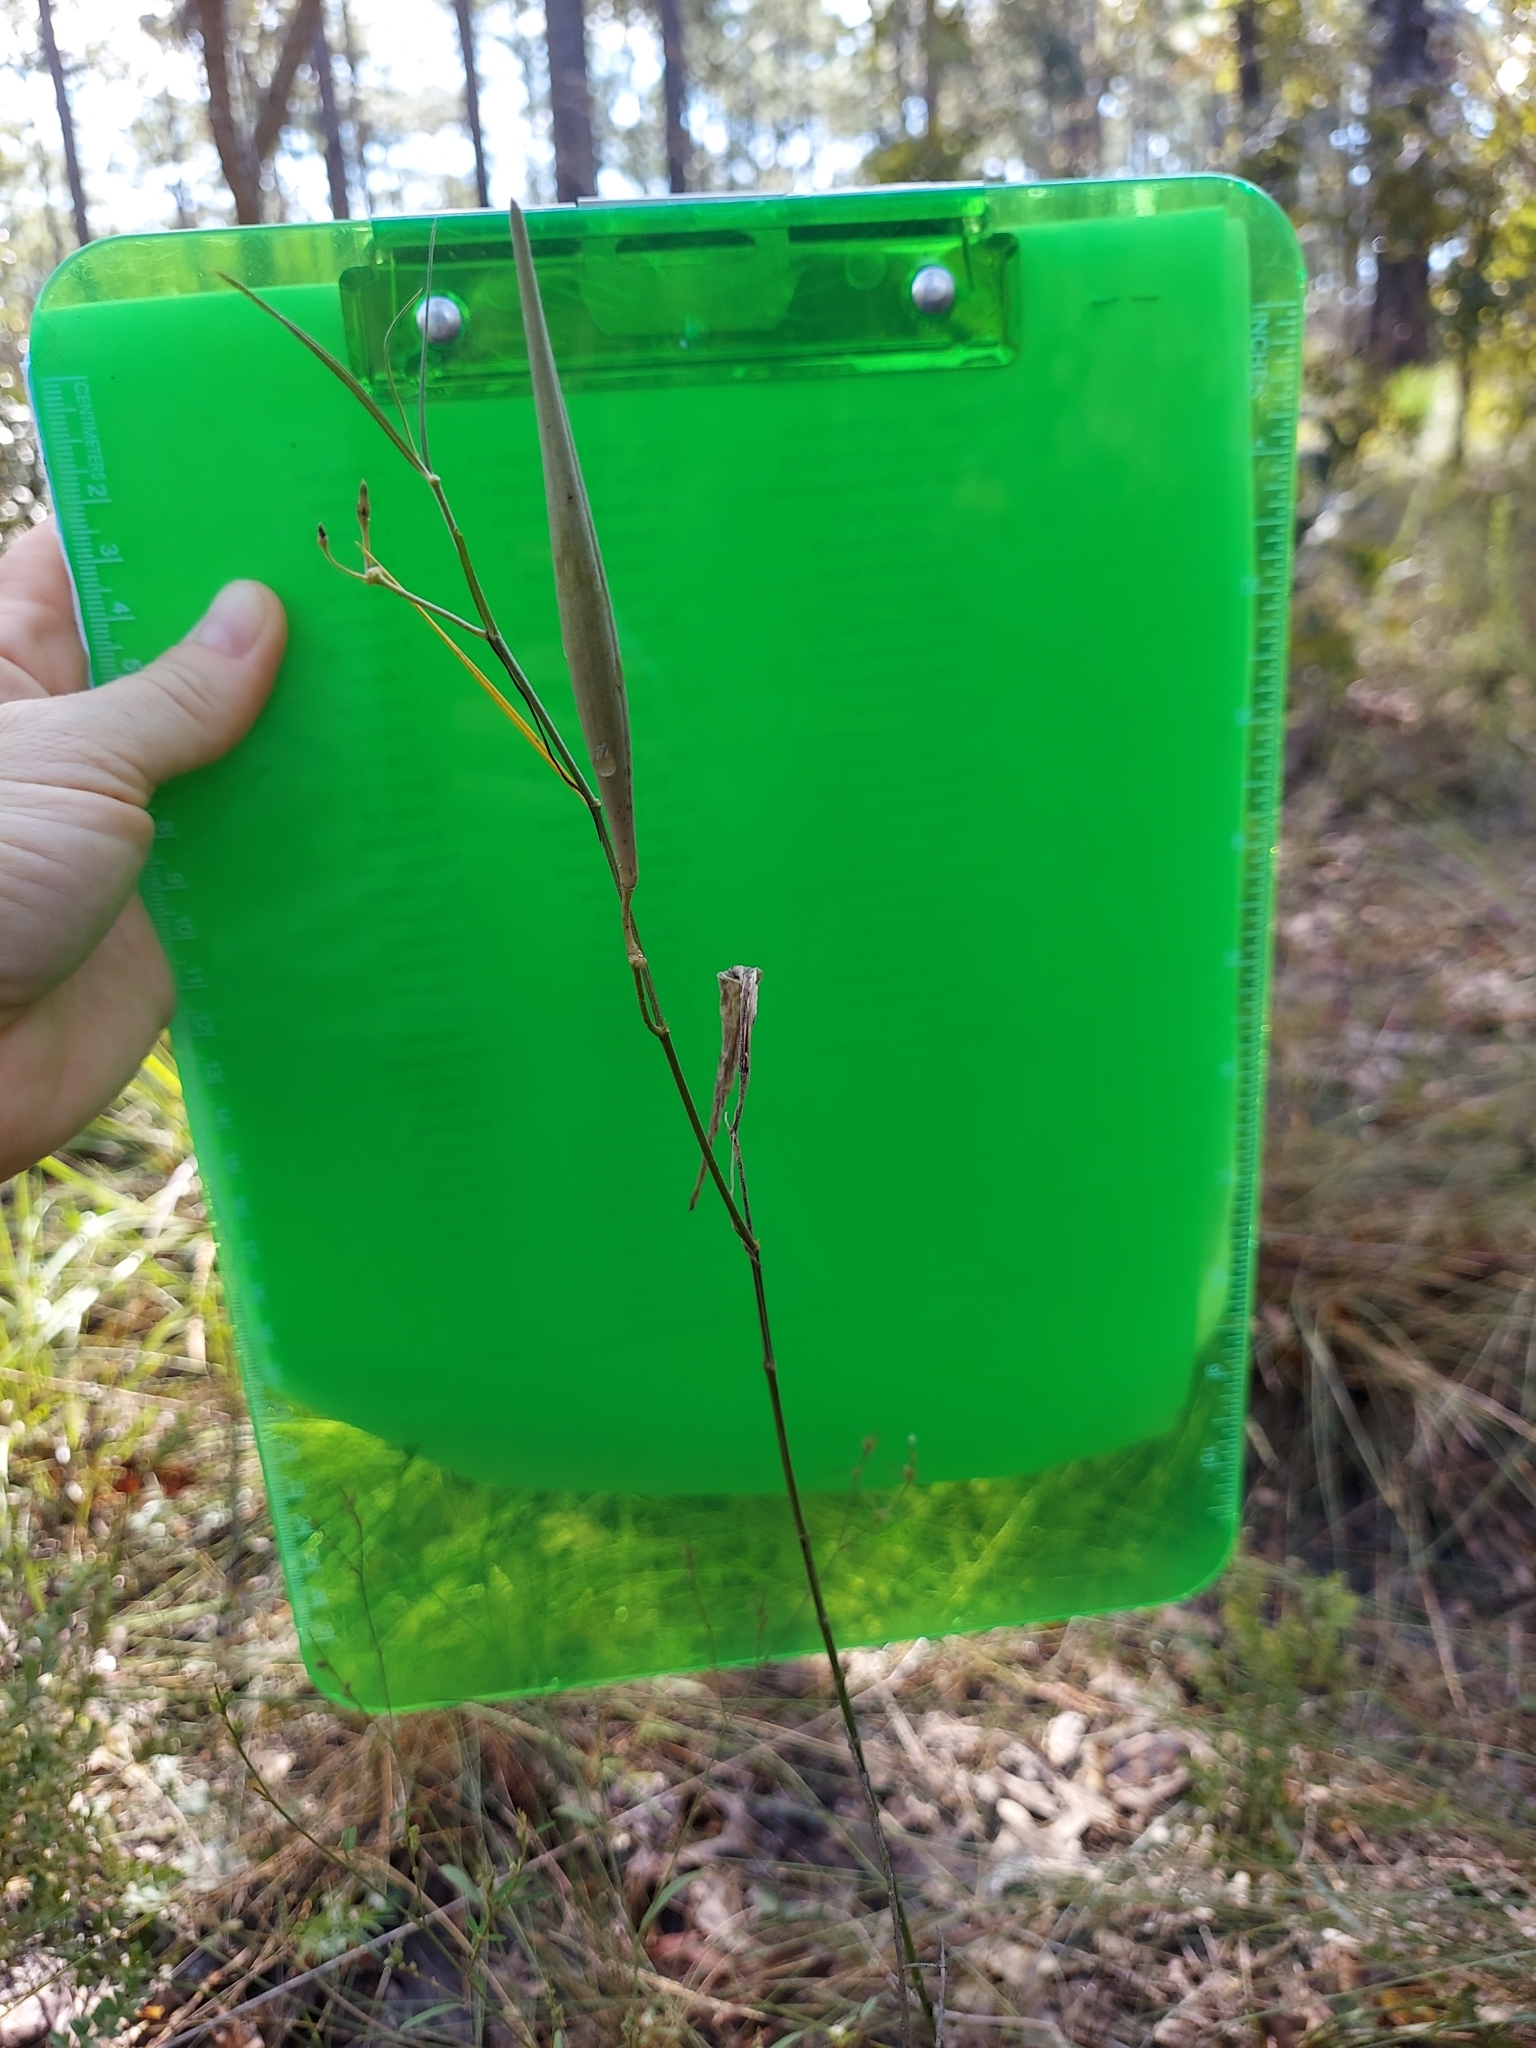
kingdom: Plantae
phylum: Tracheophyta
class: Magnoliopsida
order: Gentianales
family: Apocynaceae
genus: Asclepias
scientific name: Asclepias verticillata
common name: Eastern whorled milkweed
